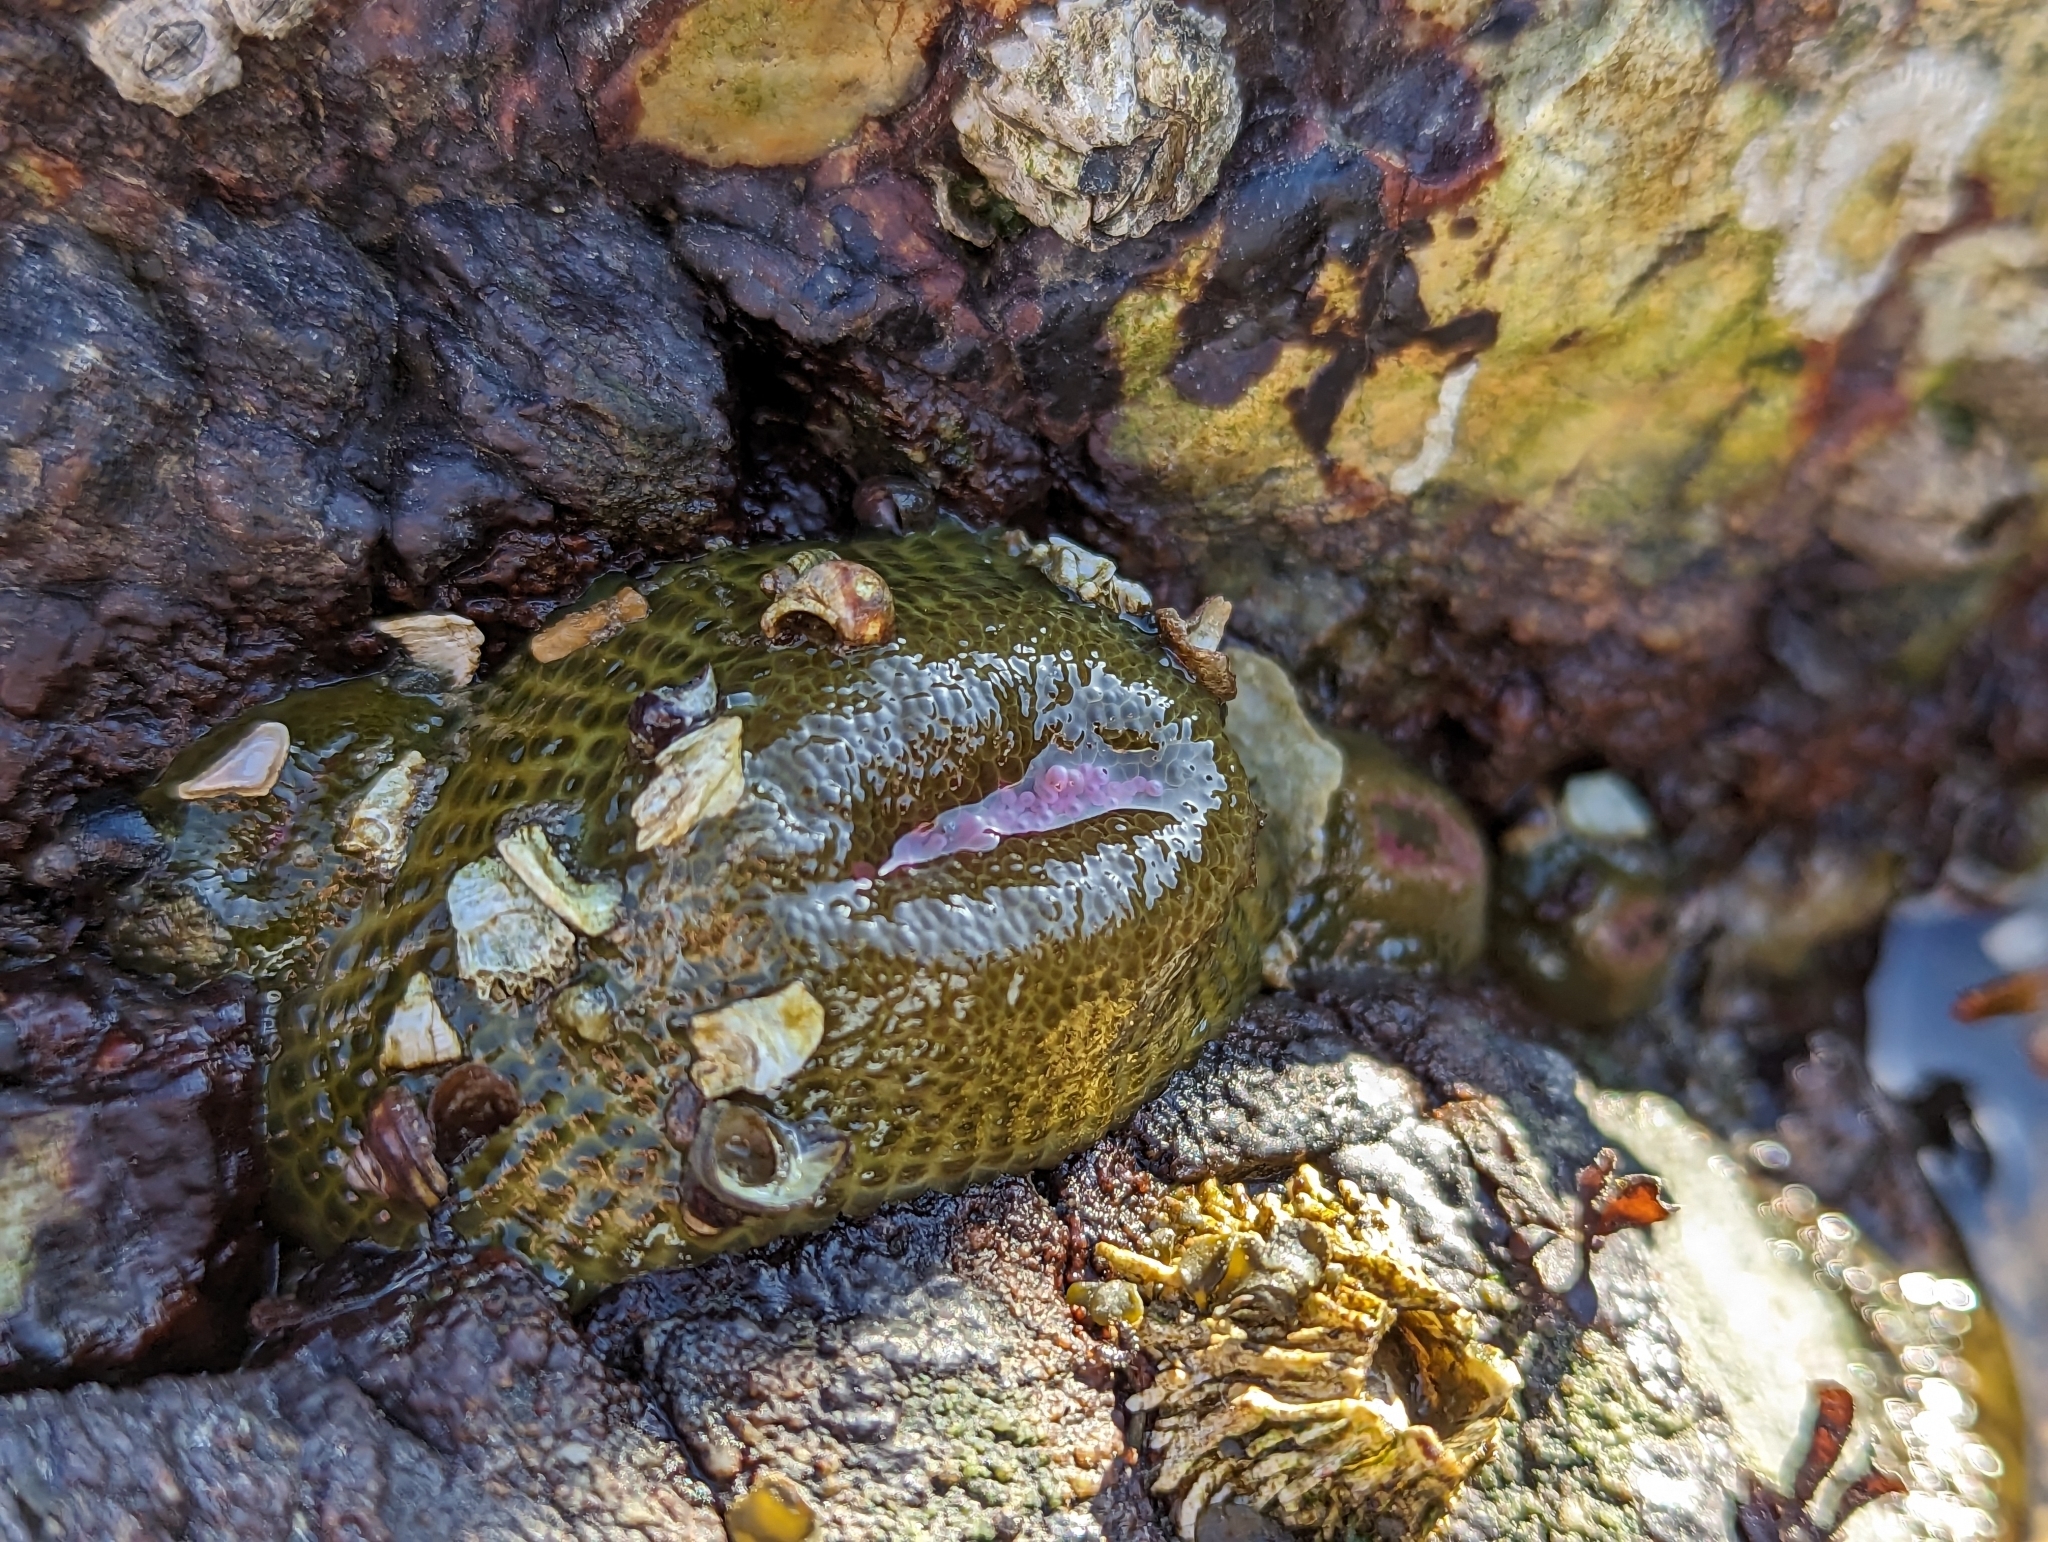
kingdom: Animalia
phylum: Cnidaria
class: Anthozoa
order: Actiniaria
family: Actiniidae
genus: Anthopleura
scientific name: Anthopleura elegantissima
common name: Clonal anemone
